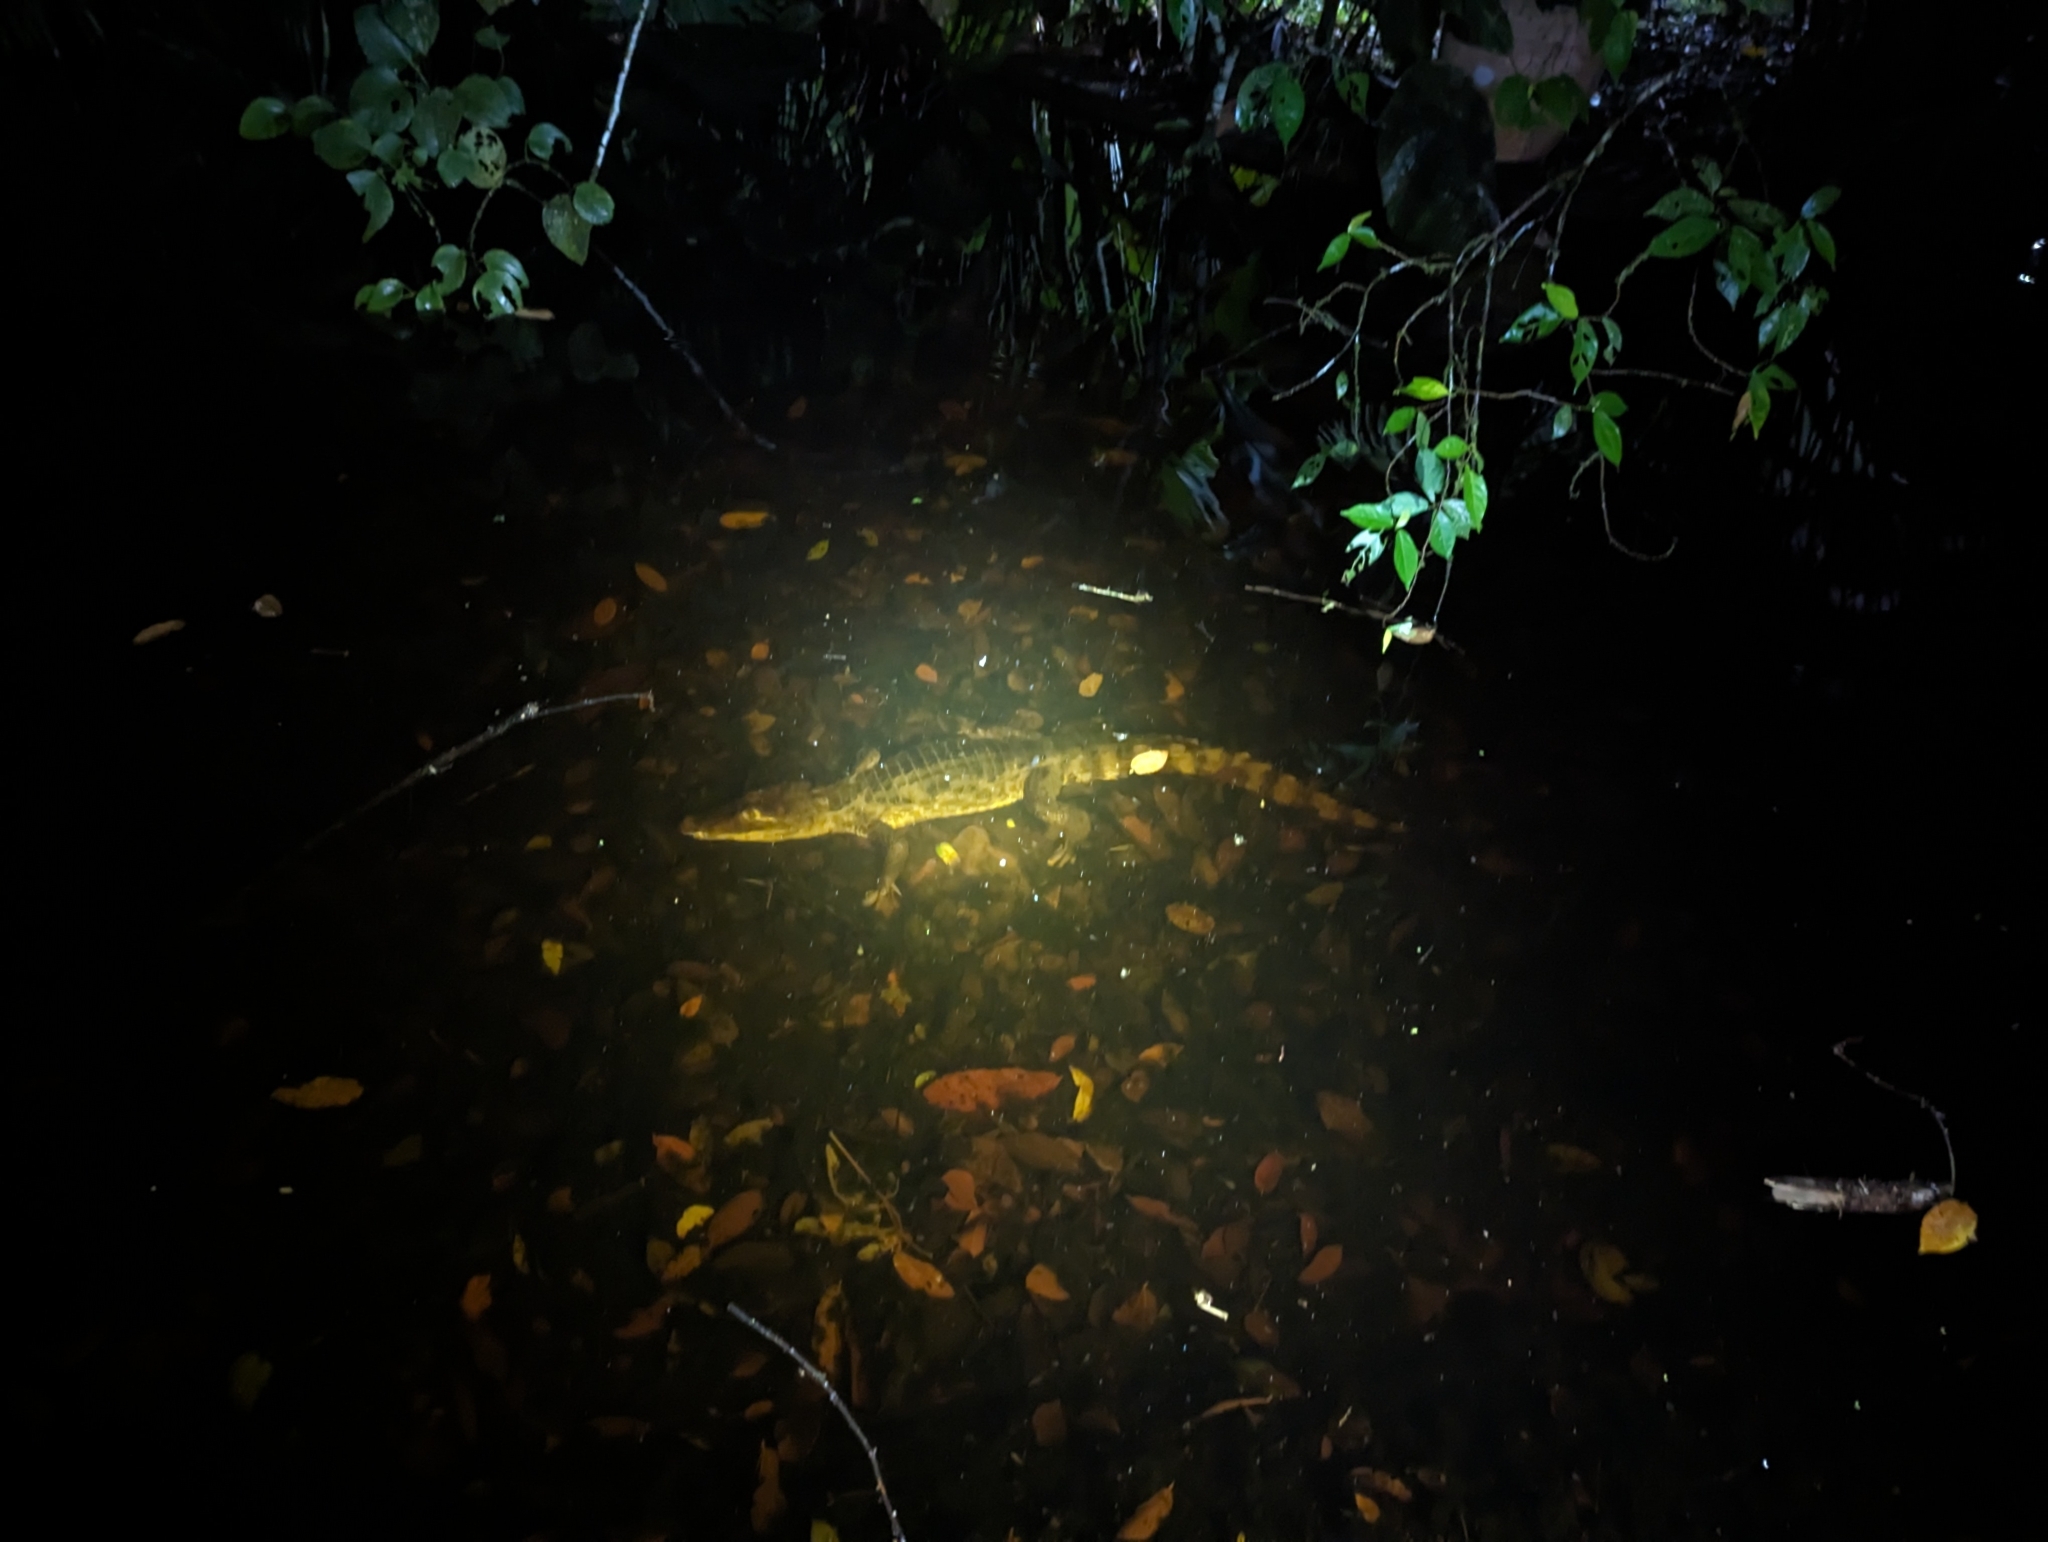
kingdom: Animalia
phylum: Chordata
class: Crocodylia
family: Alligatoridae
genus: Caiman
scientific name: Caiman crocodilus
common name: Common caiman
